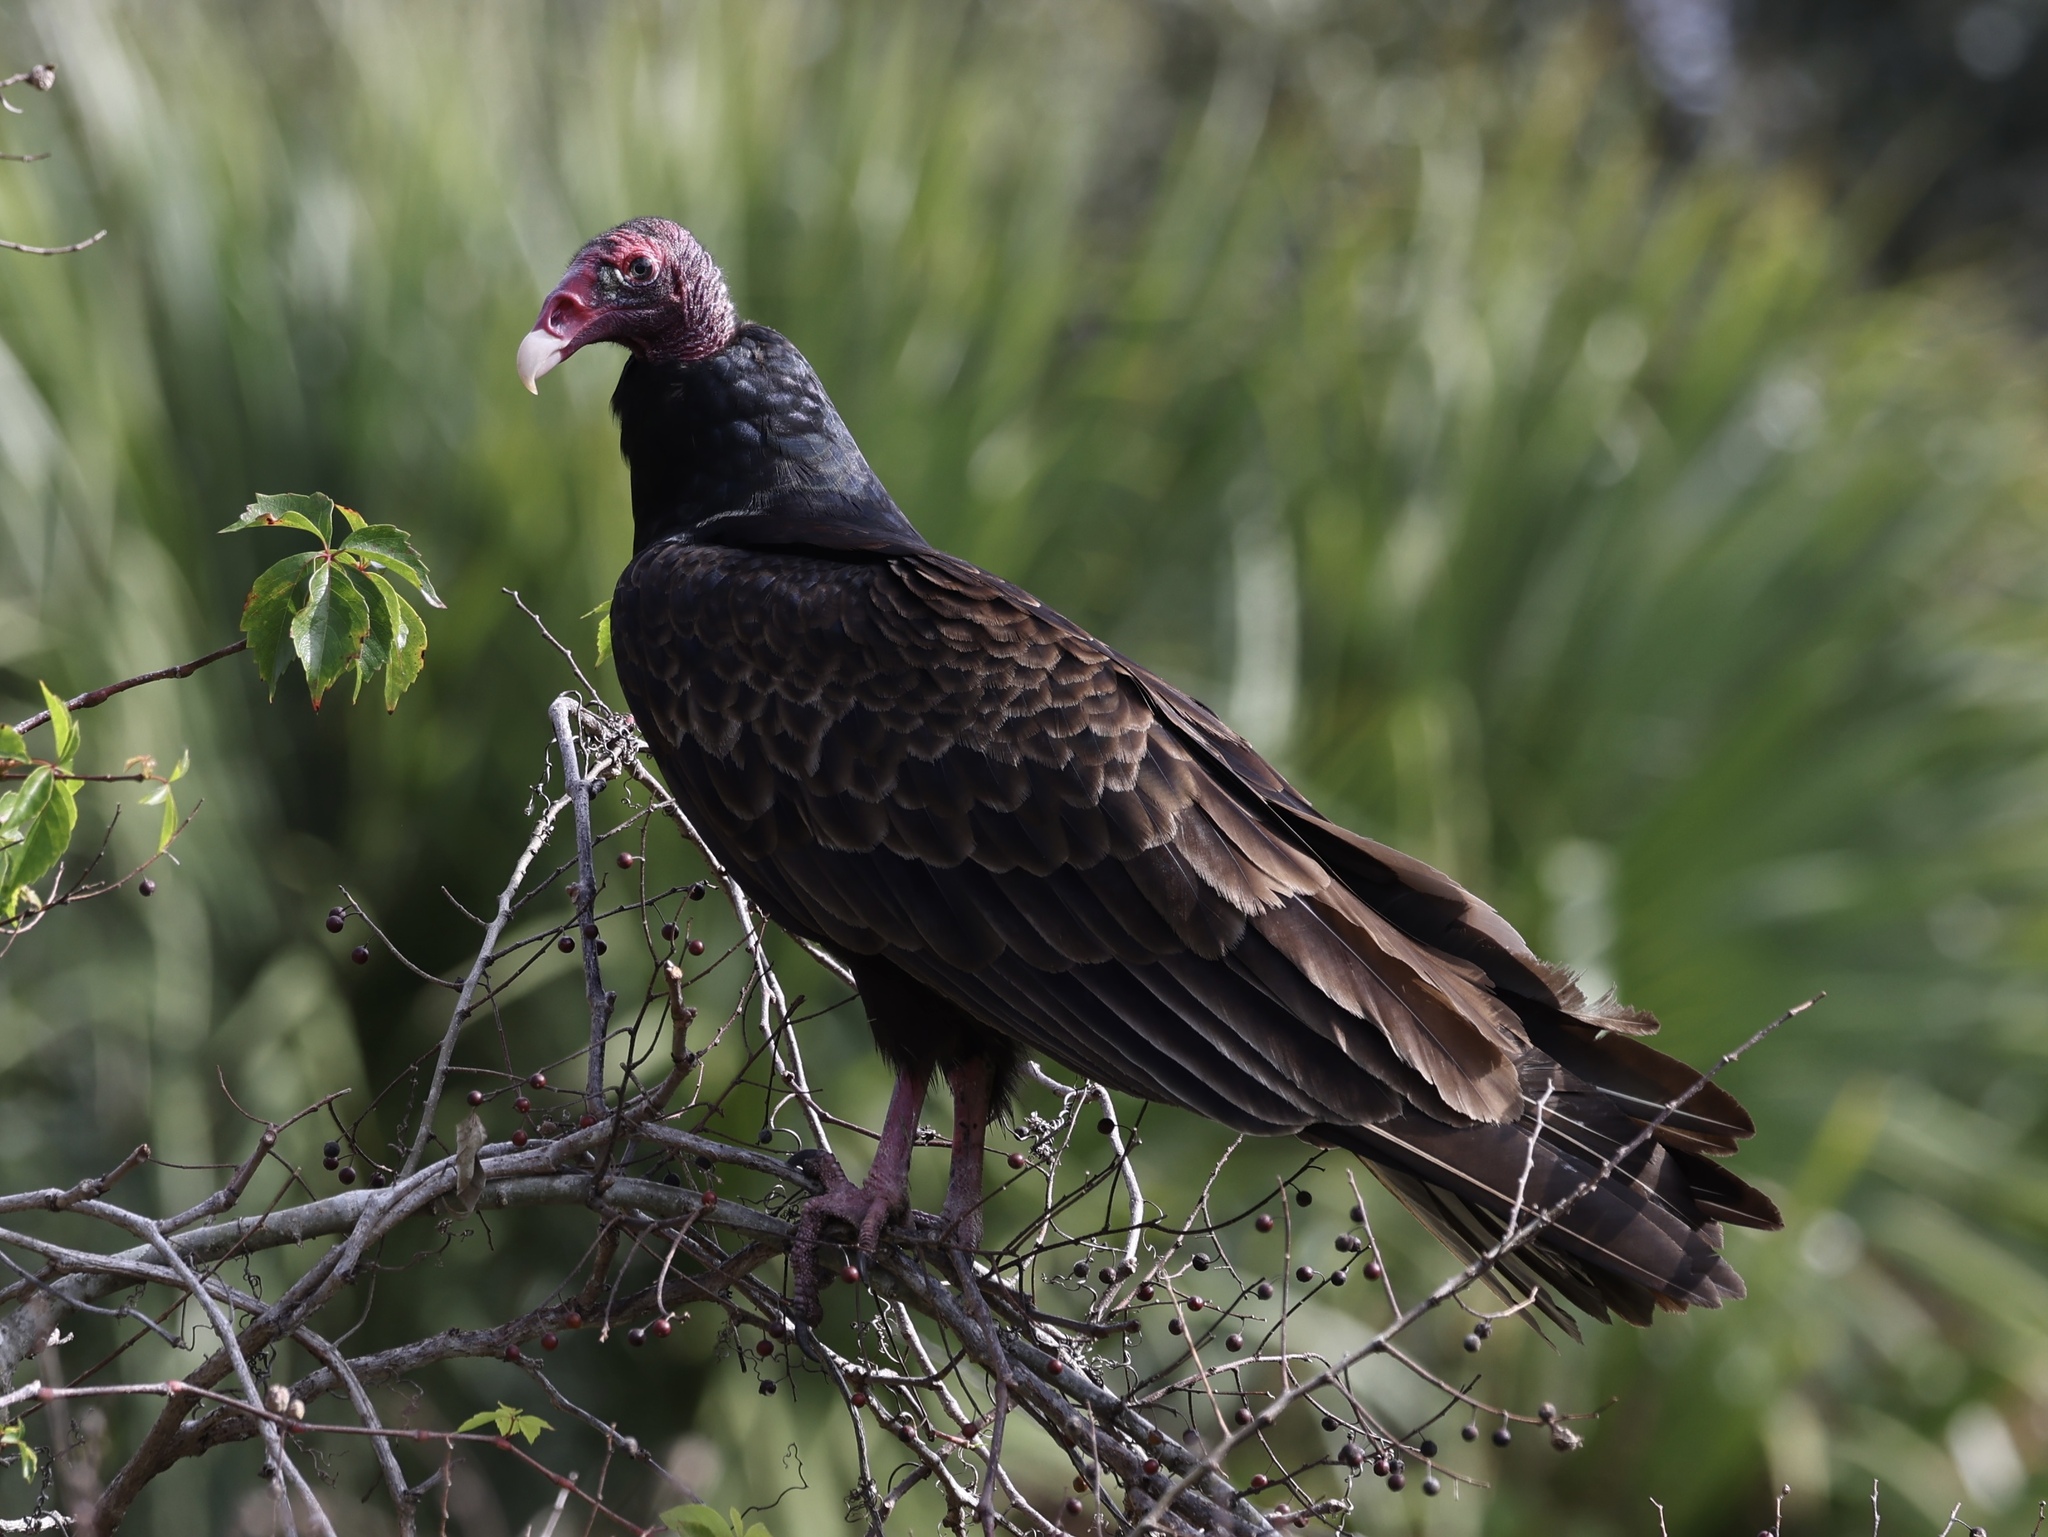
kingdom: Animalia
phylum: Chordata
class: Aves
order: Accipitriformes
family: Cathartidae
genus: Cathartes
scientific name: Cathartes aura
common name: Turkey vulture
